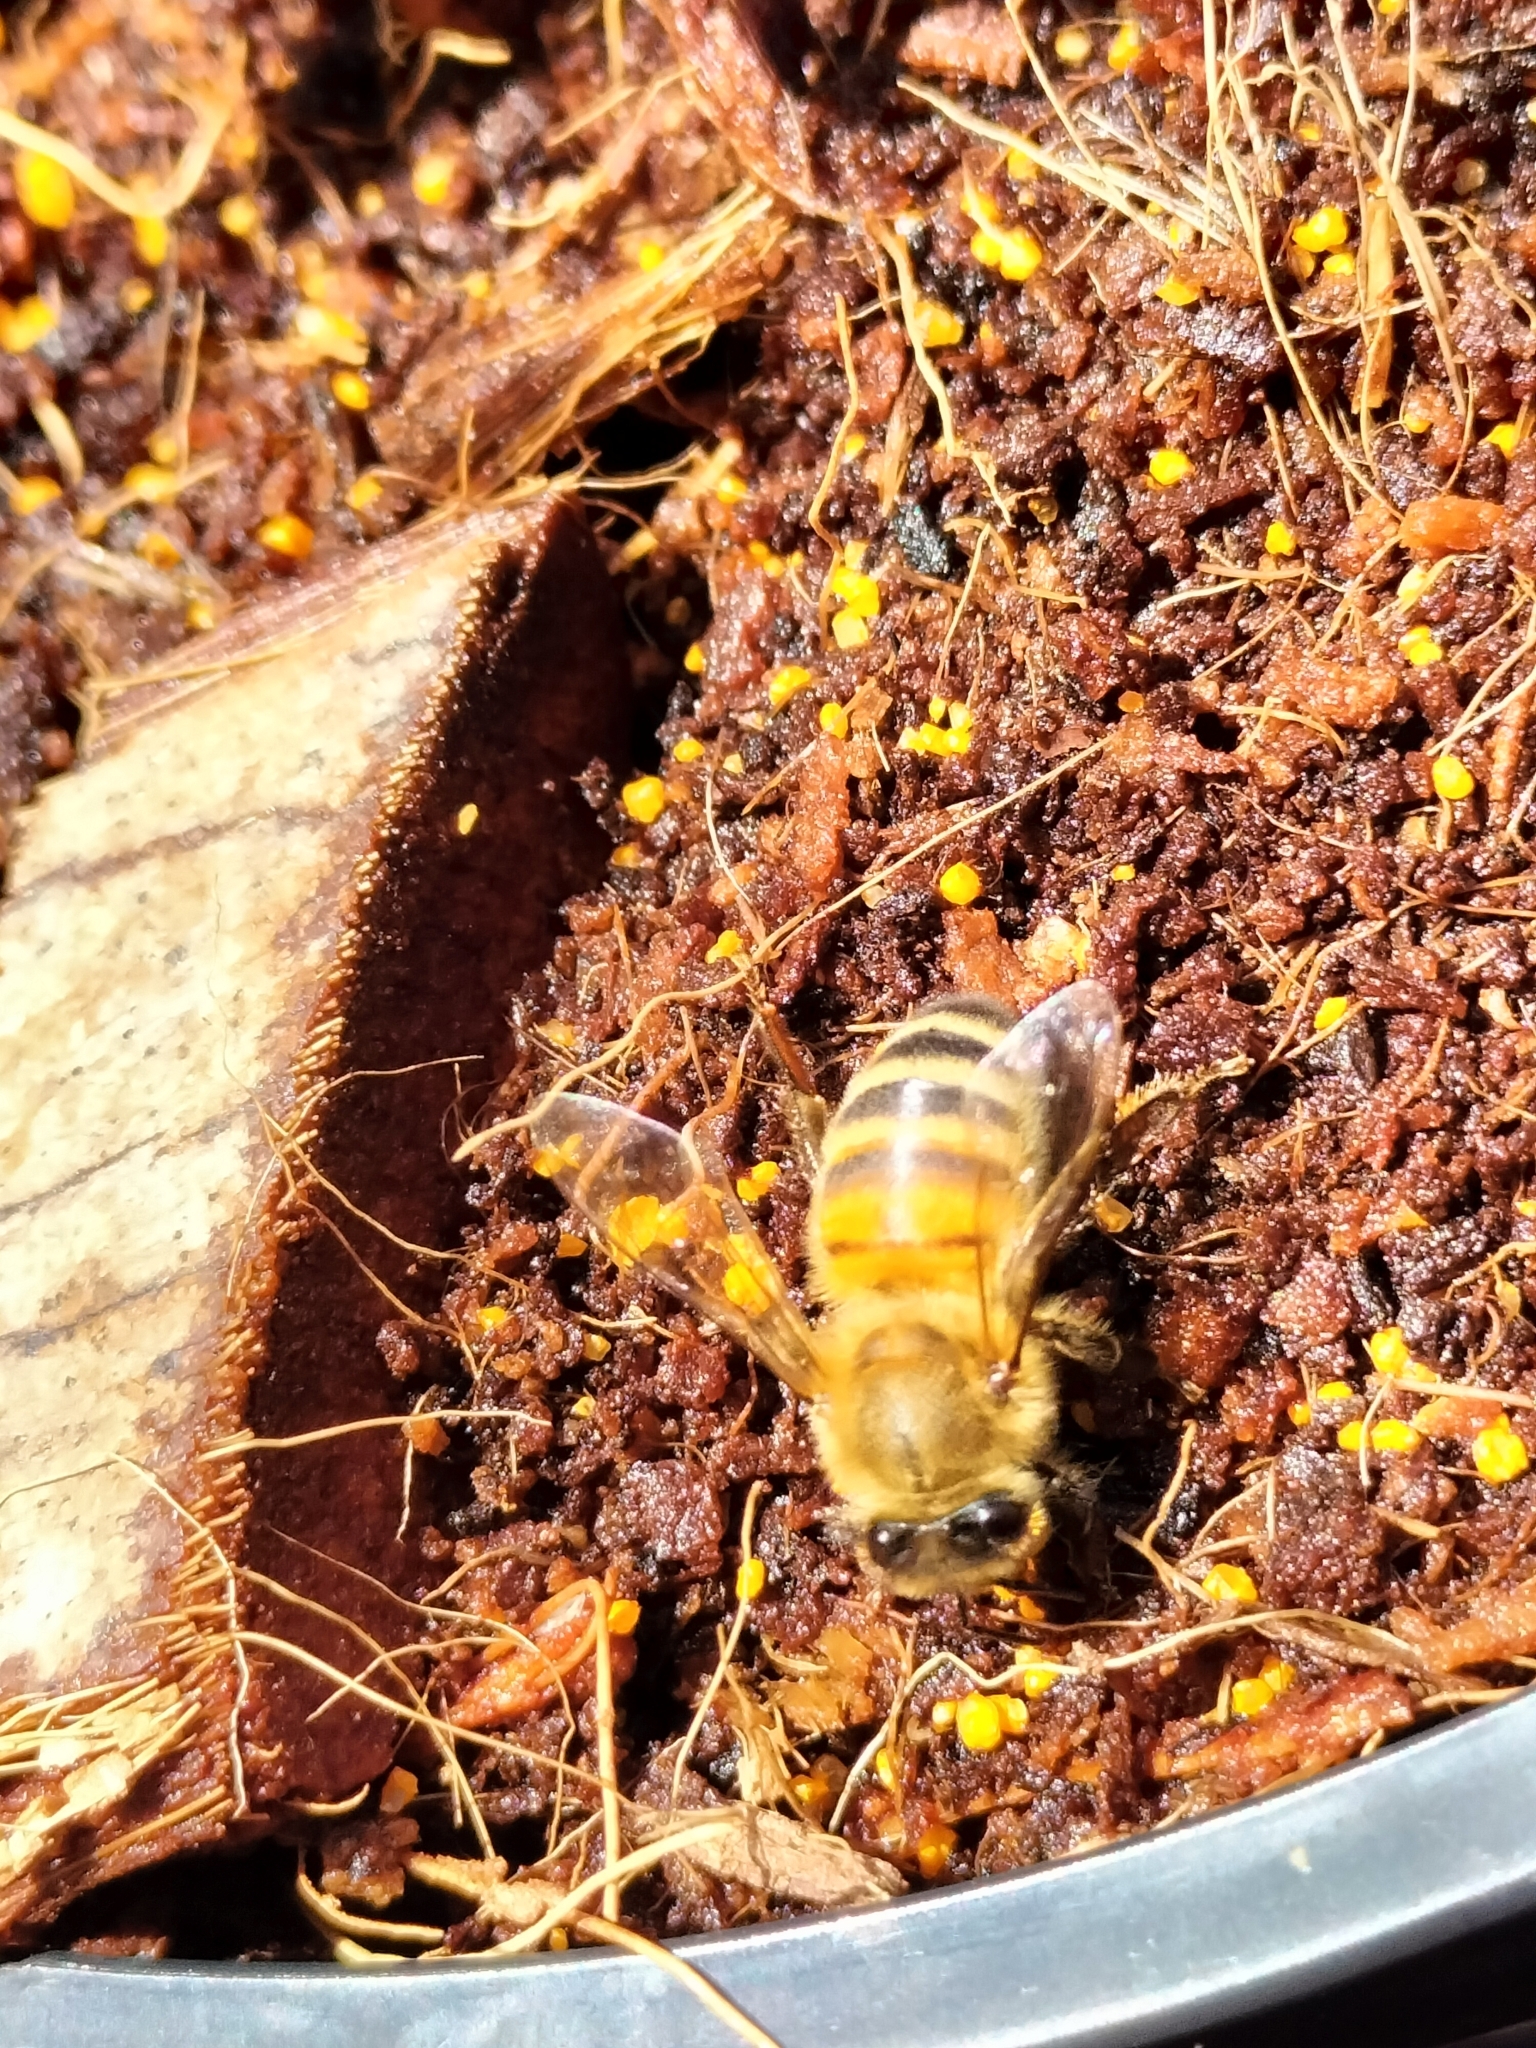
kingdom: Animalia
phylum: Arthropoda
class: Insecta
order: Hymenoptera
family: Apidae
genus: Apis
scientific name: Apis mellifera
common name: Honey bee
